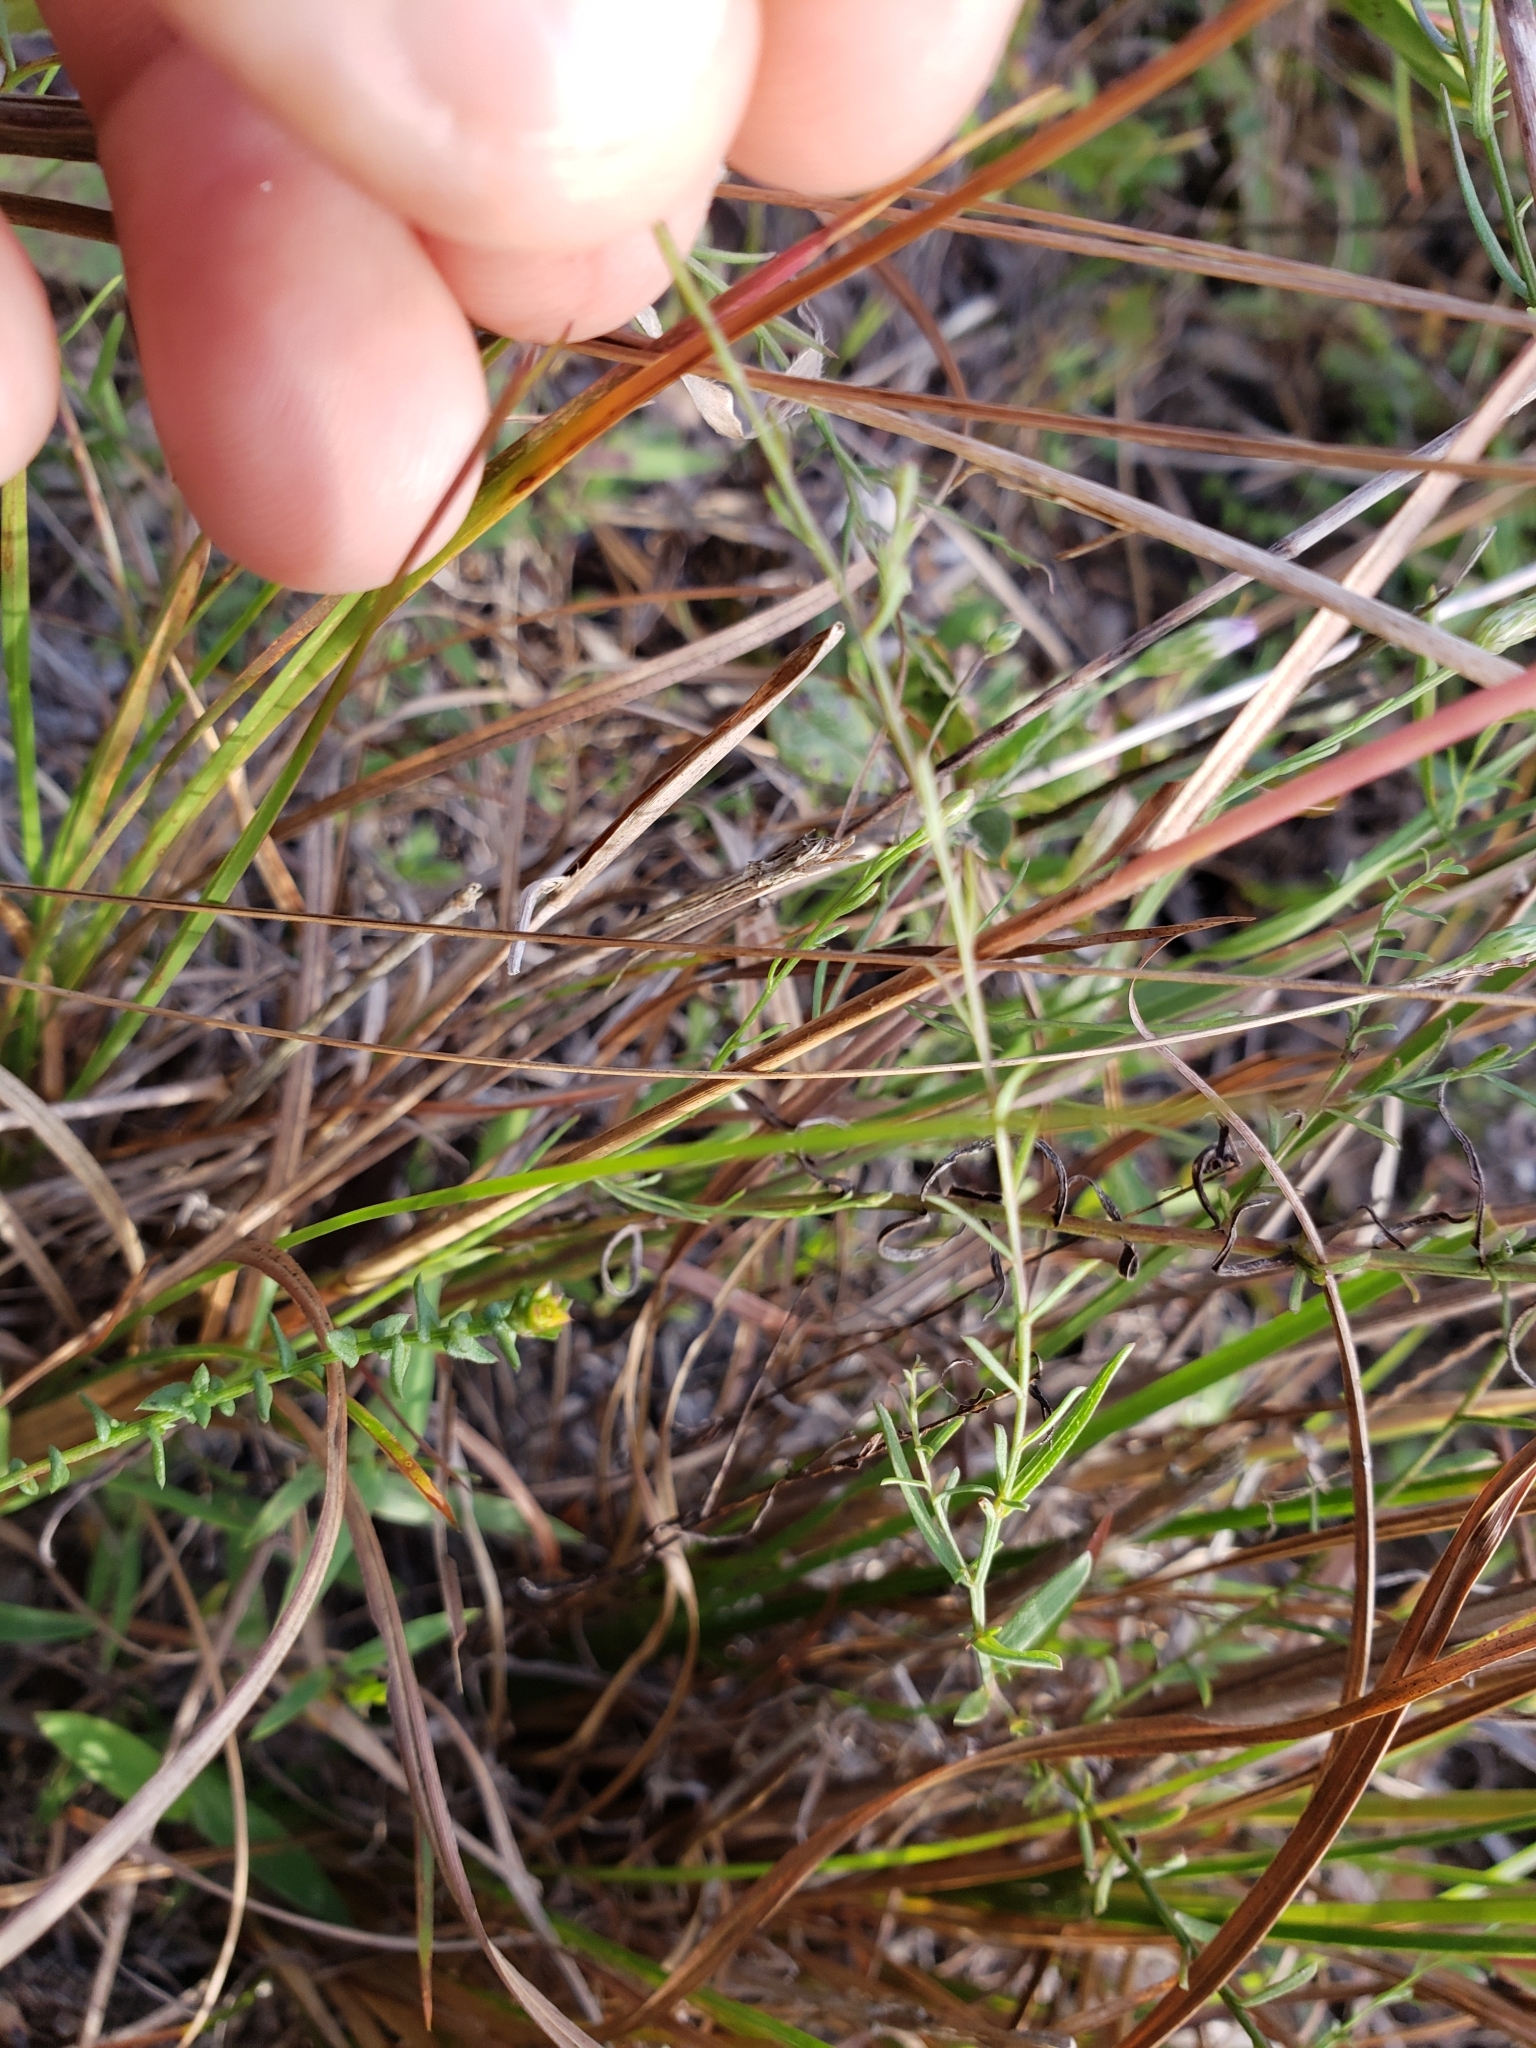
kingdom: Plantae
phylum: Tracheophyta
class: Magnoliopsida
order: Asterales
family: Asteraceae
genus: Symphyotrichum
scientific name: Symphyotrichum walteri
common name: Walter's aster
